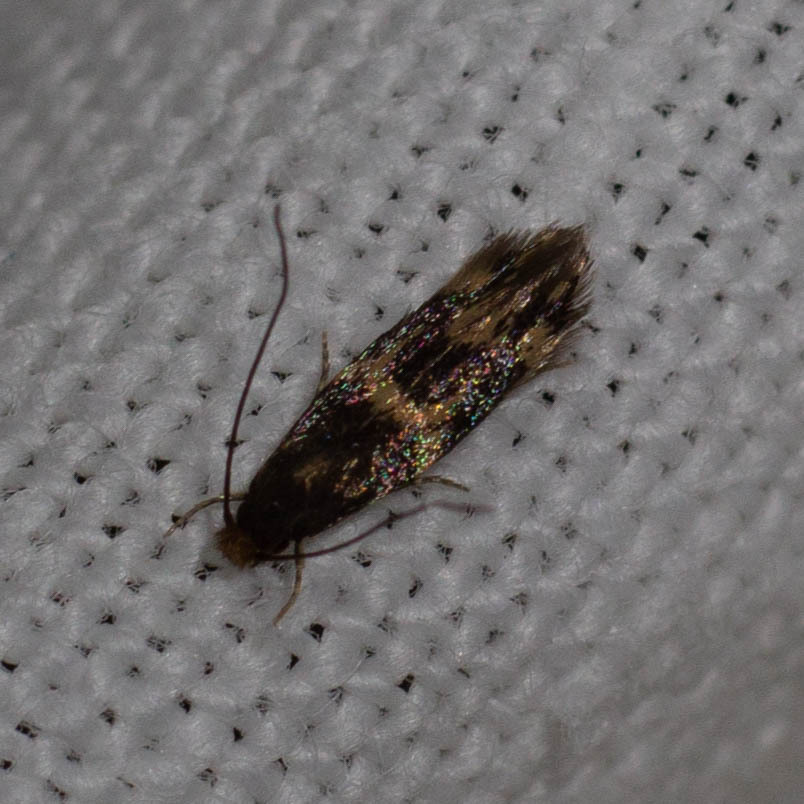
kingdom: Animalia
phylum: Arthropoda
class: Insecta
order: Lepidoptera
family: Tineidae
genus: Oinophila
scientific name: Oinophila v-flava
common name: Yellow v moth
